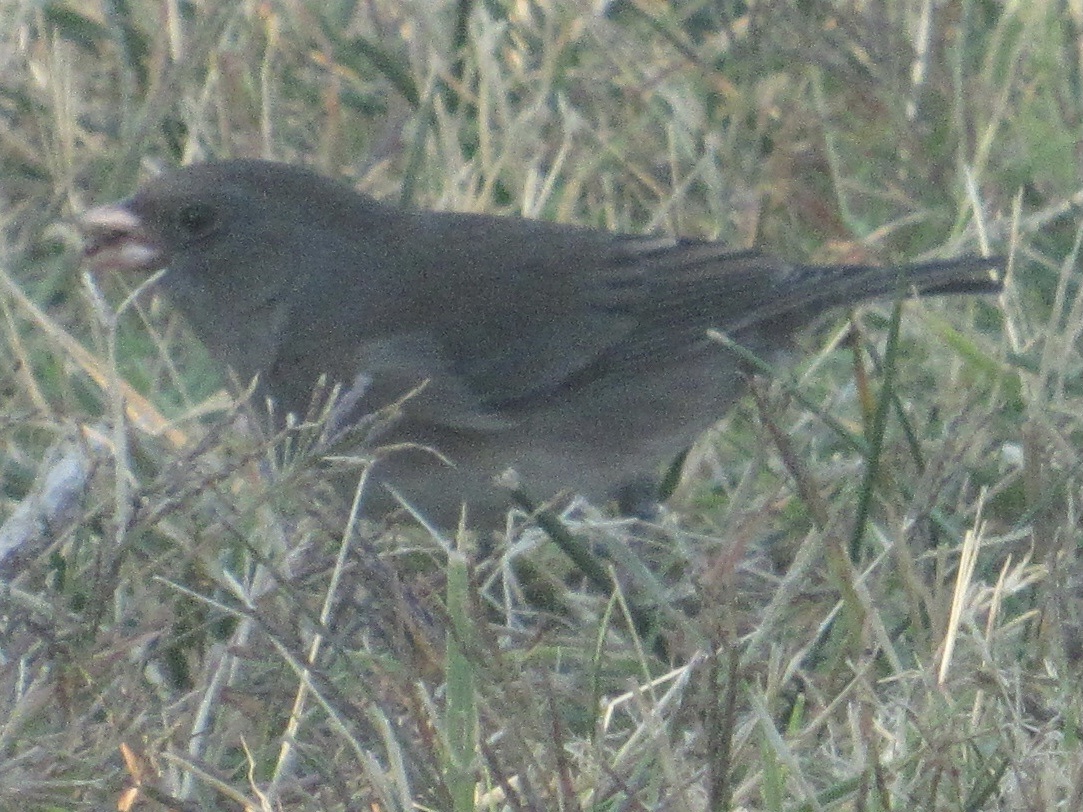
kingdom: Animalia
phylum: Chordata
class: Aves
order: Passeriformes
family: Passerellidae
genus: Junco
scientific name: Junco hyemalis
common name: Dark-eyed junco
